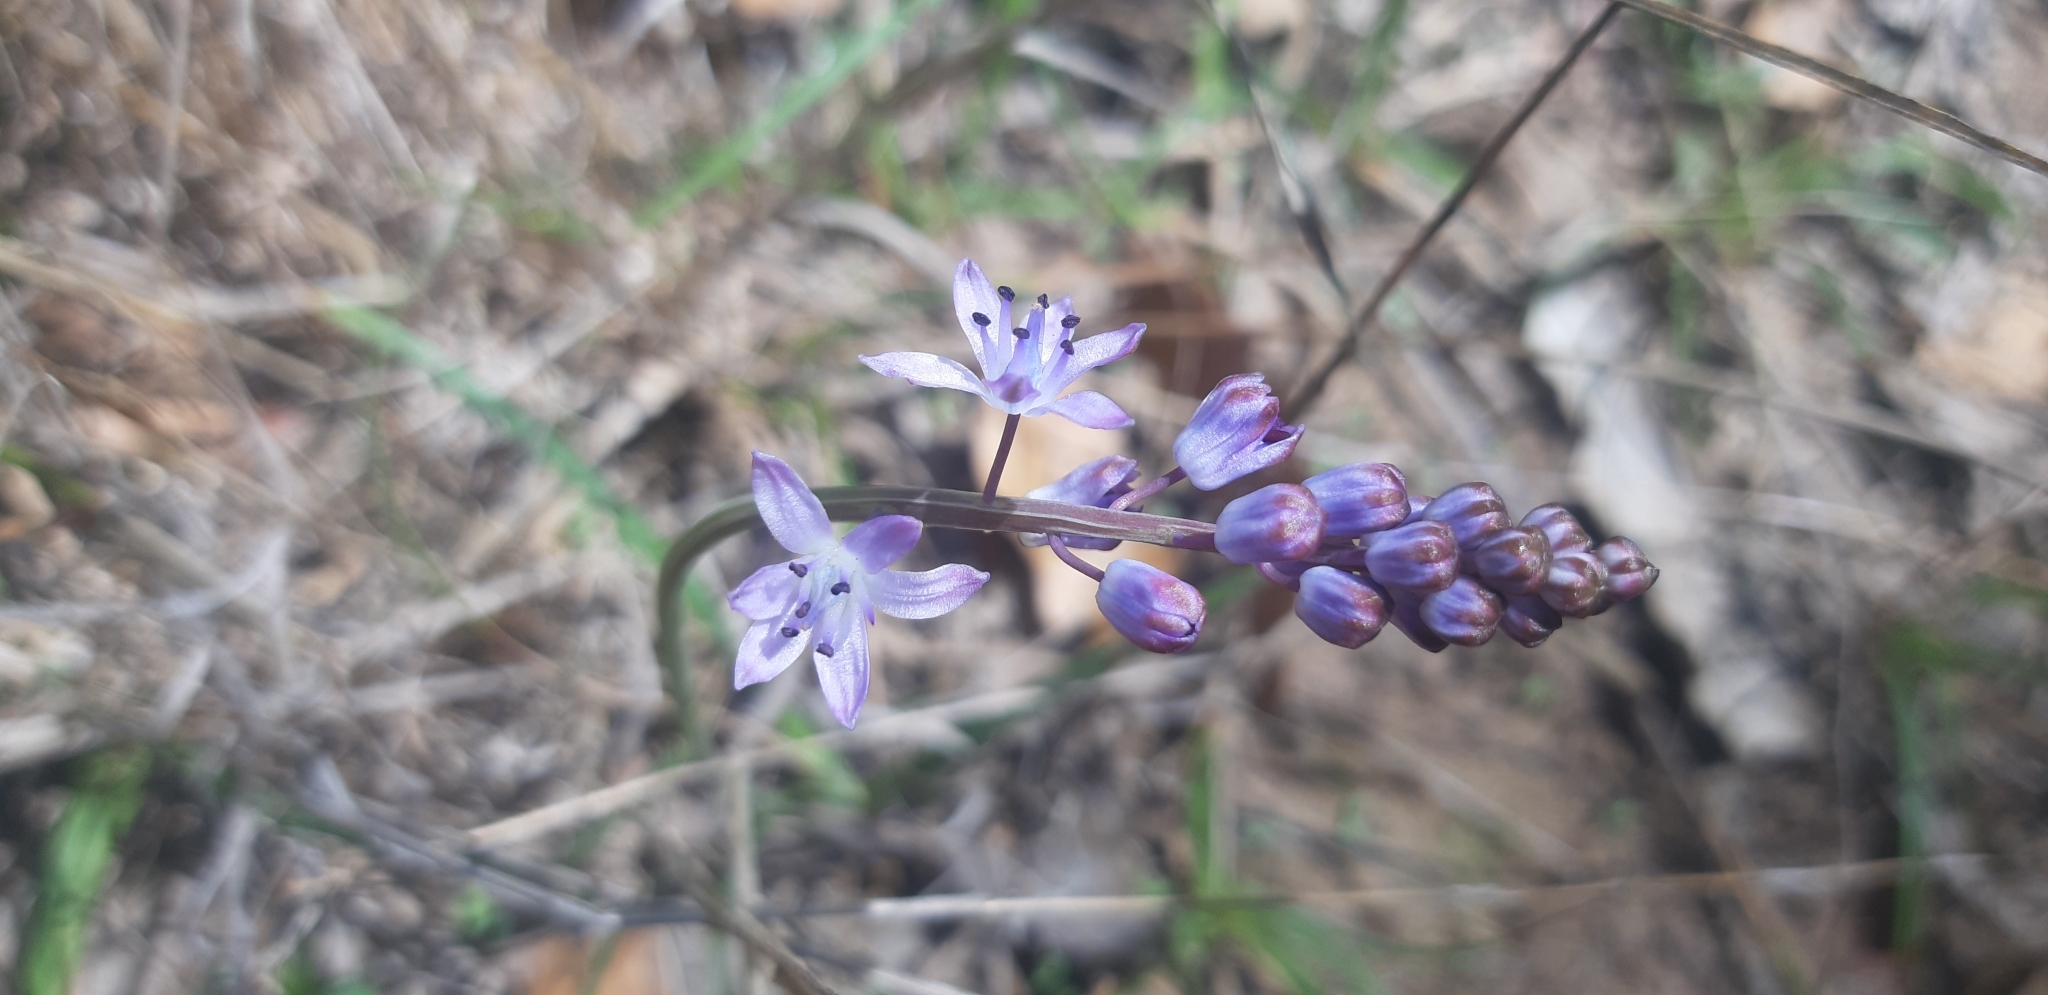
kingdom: Plantae
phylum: Tracheophyta
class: Liliopsida
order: Asparagales
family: Asparagaceae
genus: Prospero
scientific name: Prospero autumnale
